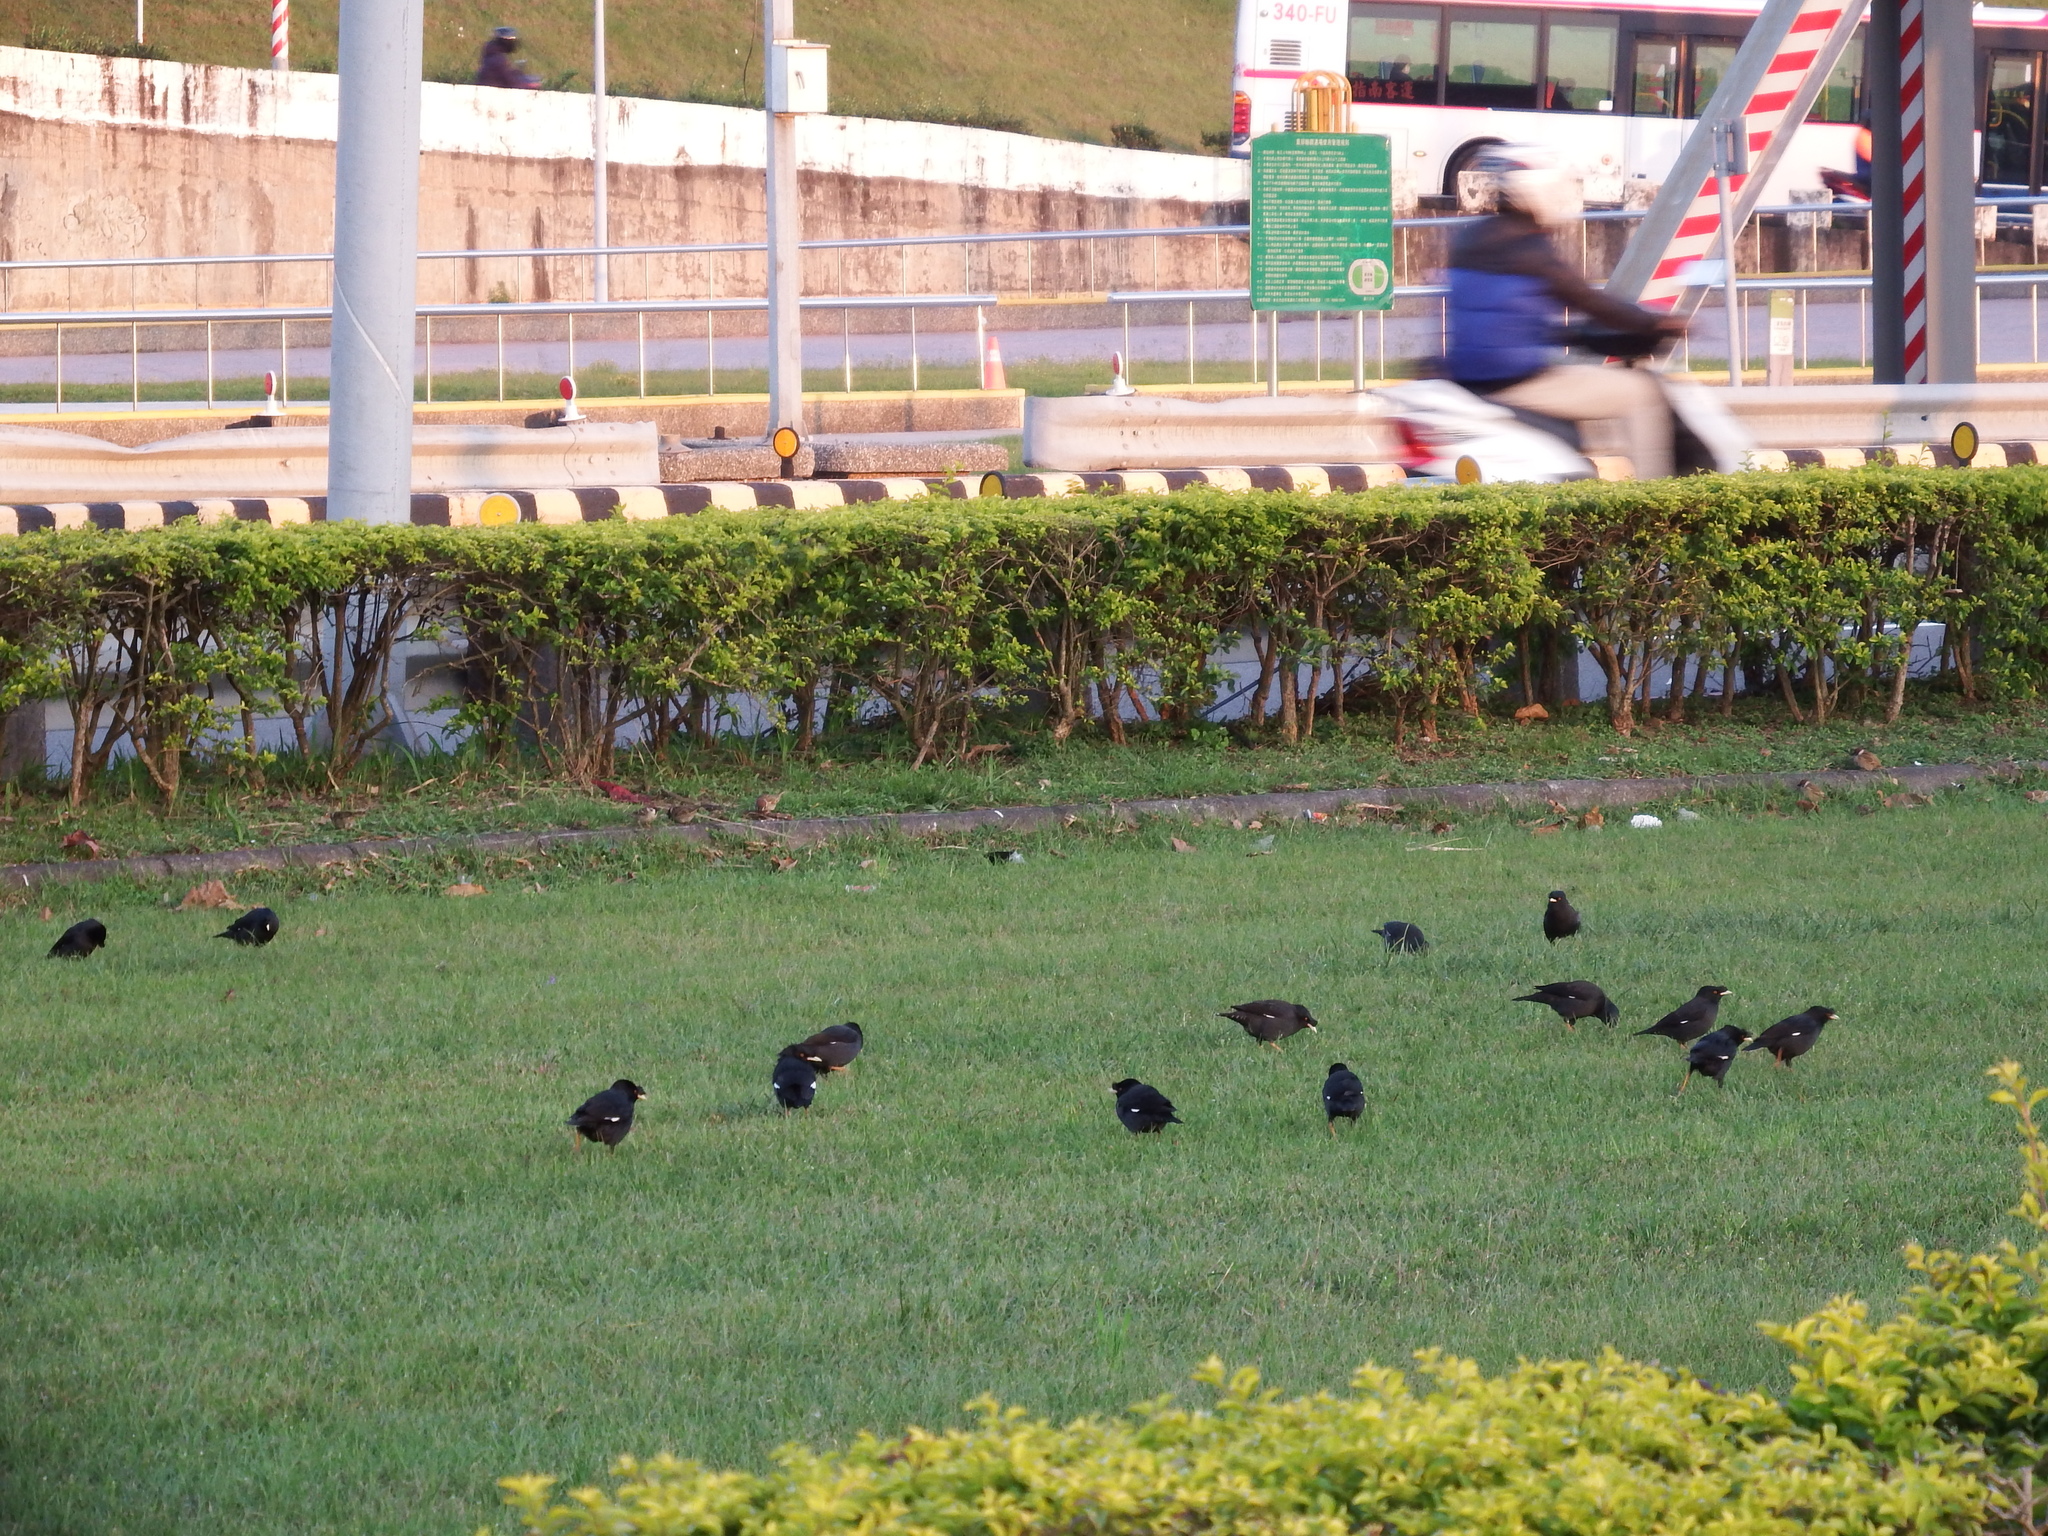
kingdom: Animalia
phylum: Chordata
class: Aves
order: Passeriformes
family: Sturnidae
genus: Acridotheres
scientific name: Acridotheres cristatellus
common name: Crested myna
